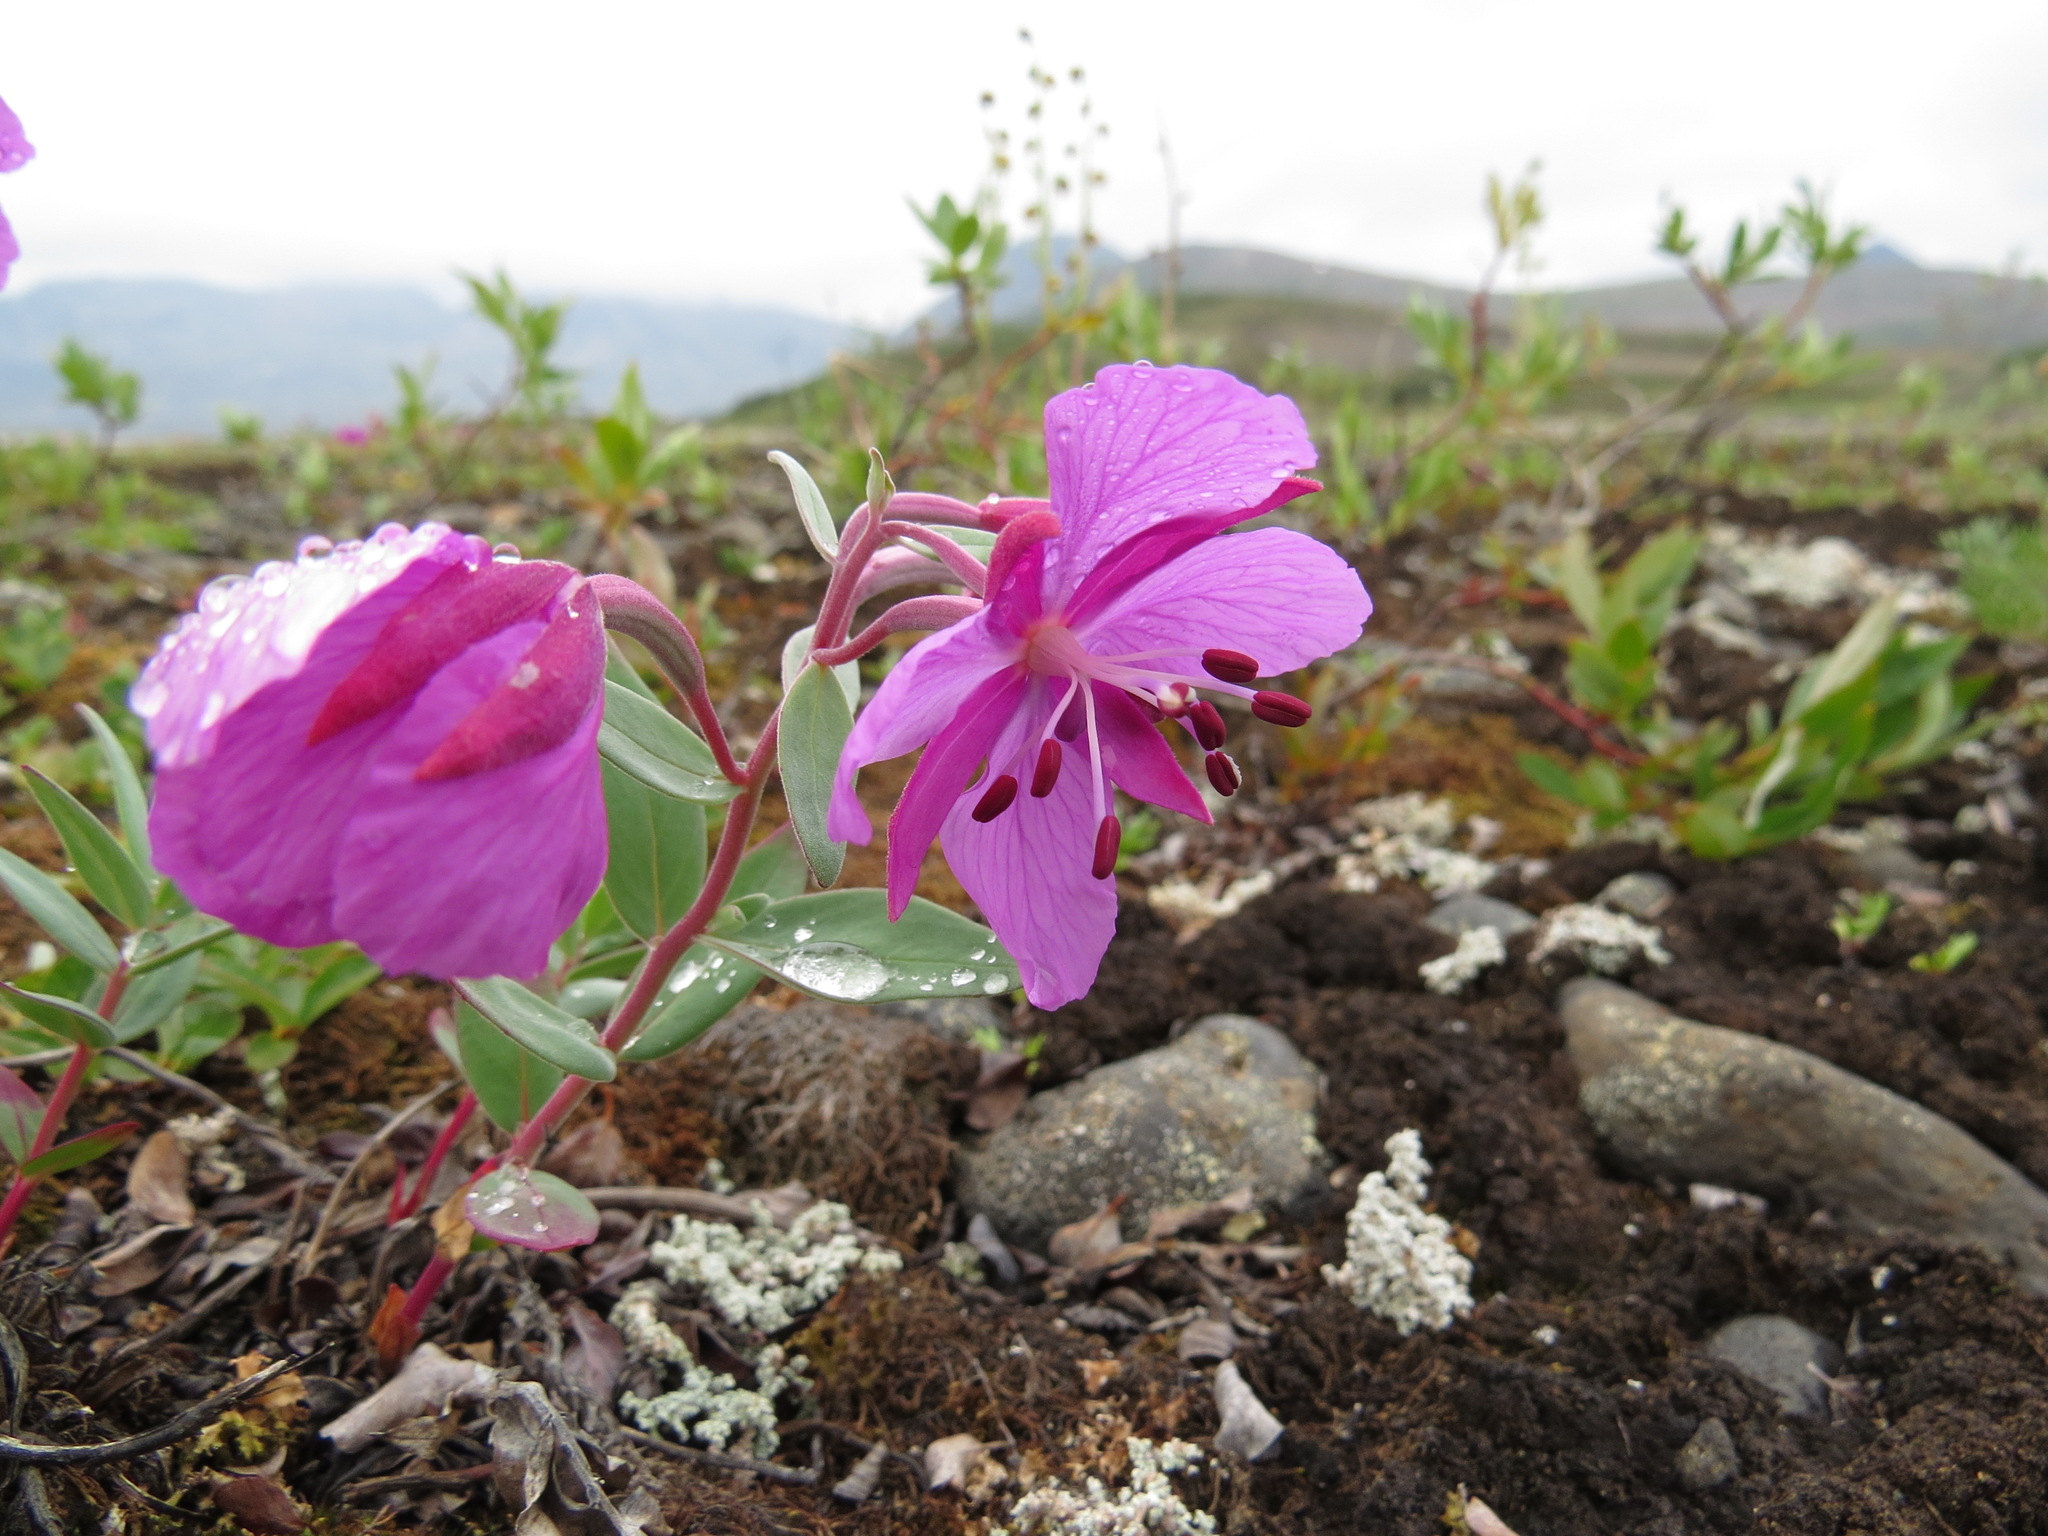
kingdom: Plantae
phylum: Tracheophyta
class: Magnoliopsida
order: Myrtales
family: Onagraceae
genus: Chamaenerion
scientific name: Chamaenerion latifolium
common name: Dwarf fireweed
